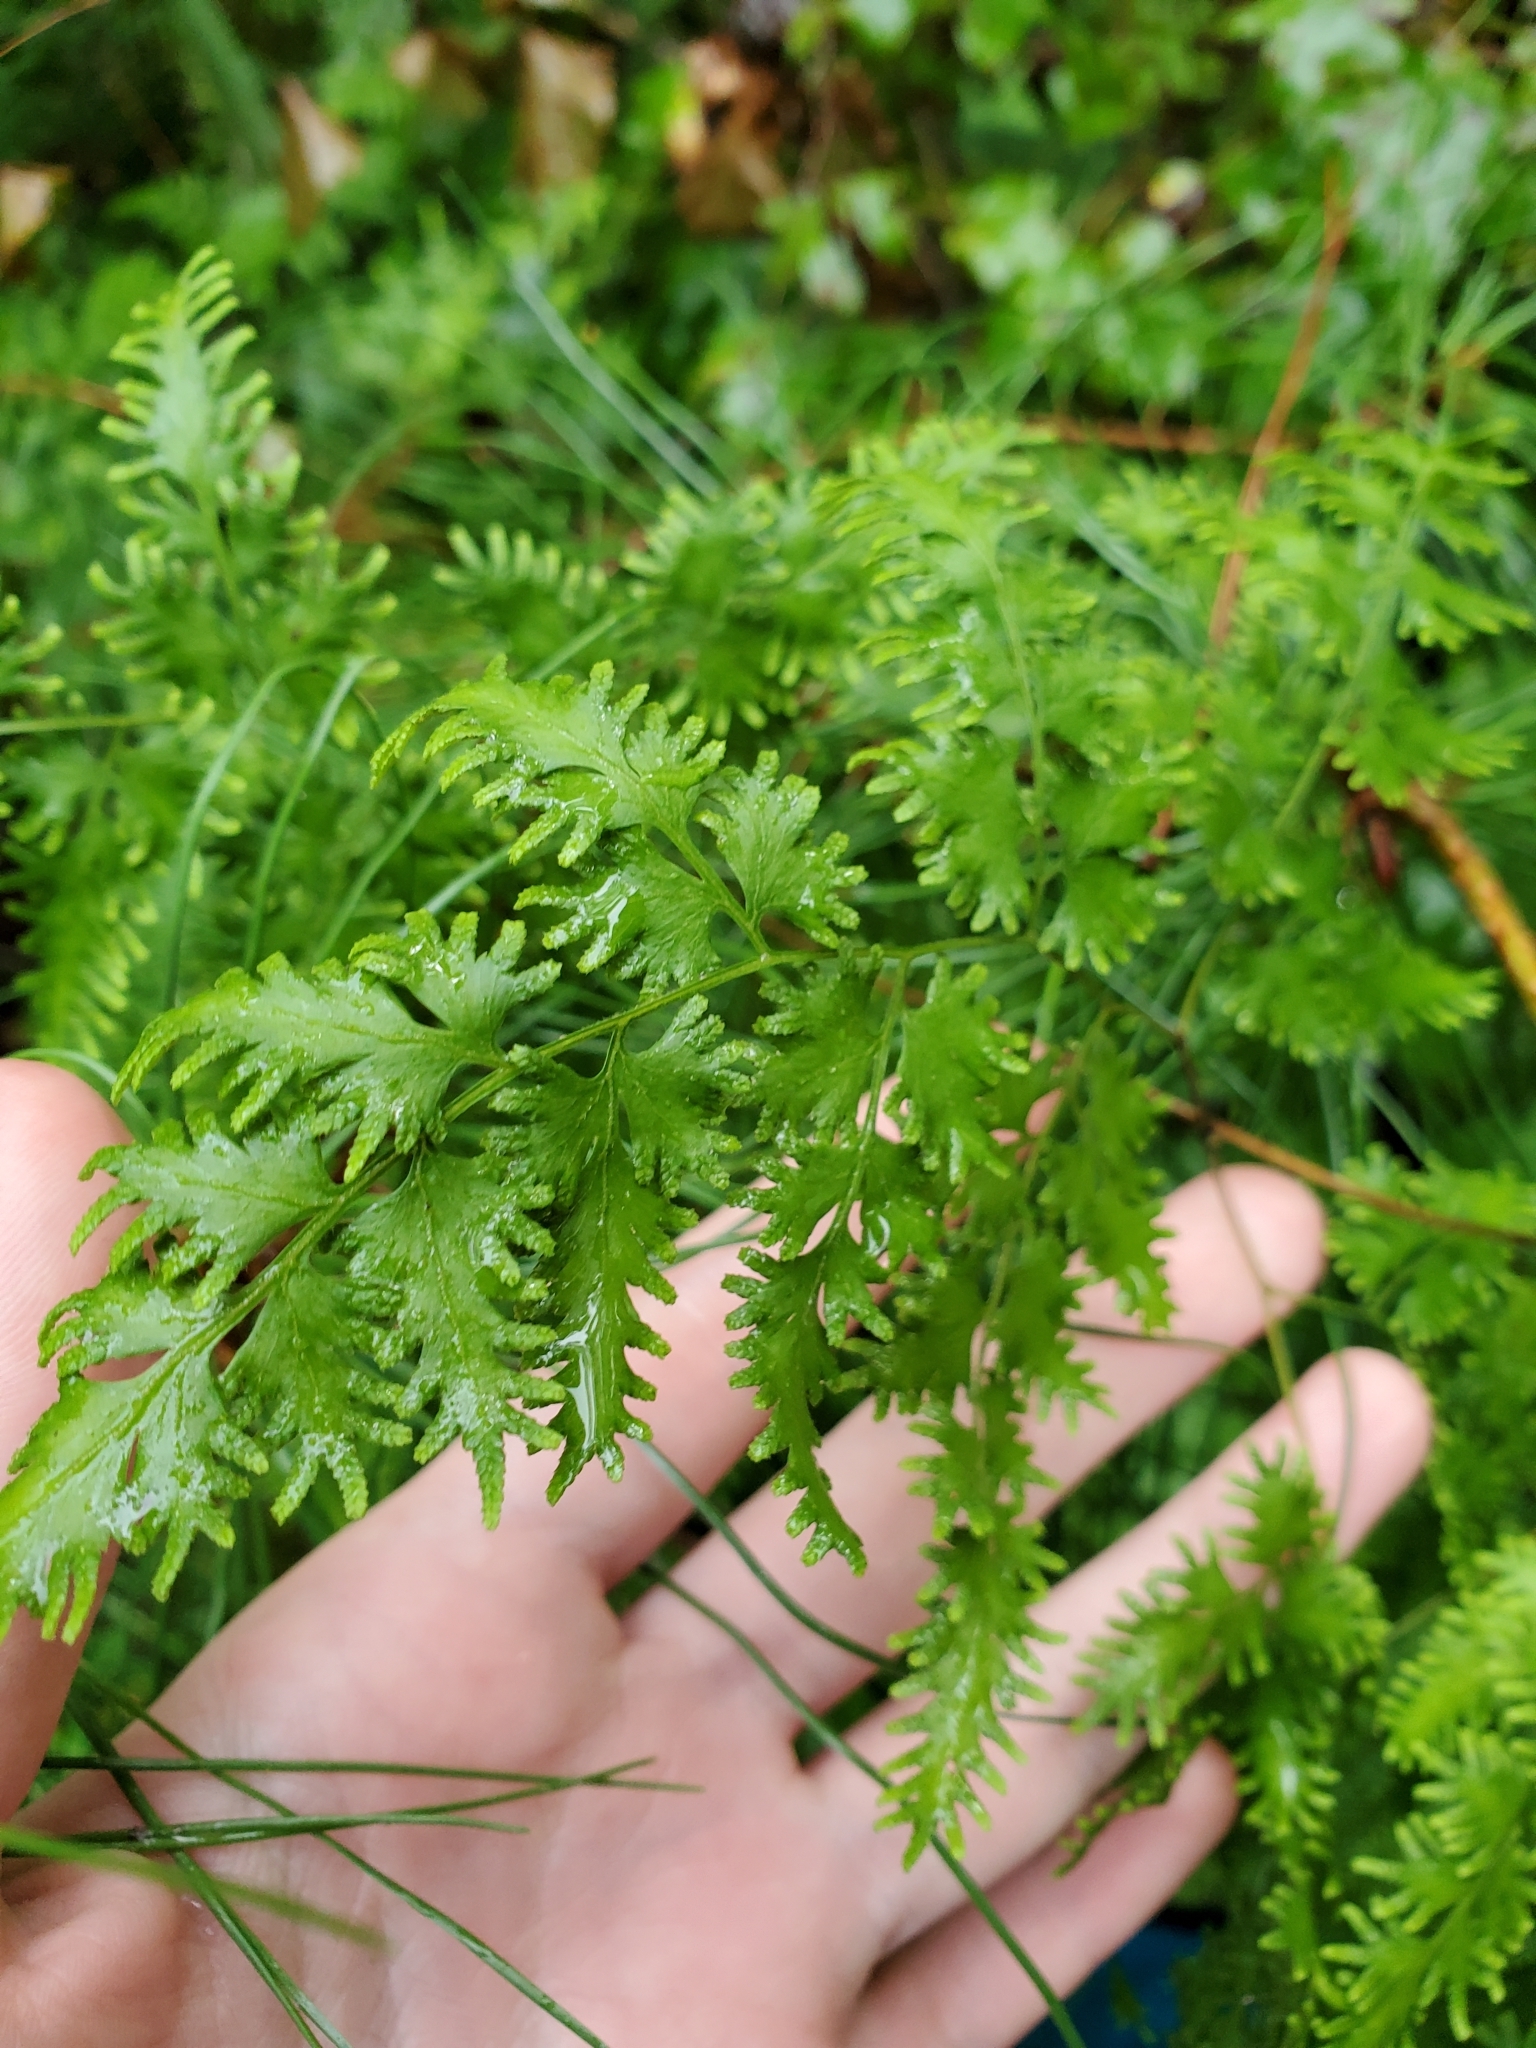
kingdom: Plantae
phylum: Tracheophyta
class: Polypodiopsida
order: Schizaeales
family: Lygodiaceae
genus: Lygodium
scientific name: Lygodium japonicum
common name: Japanese climbing fern
